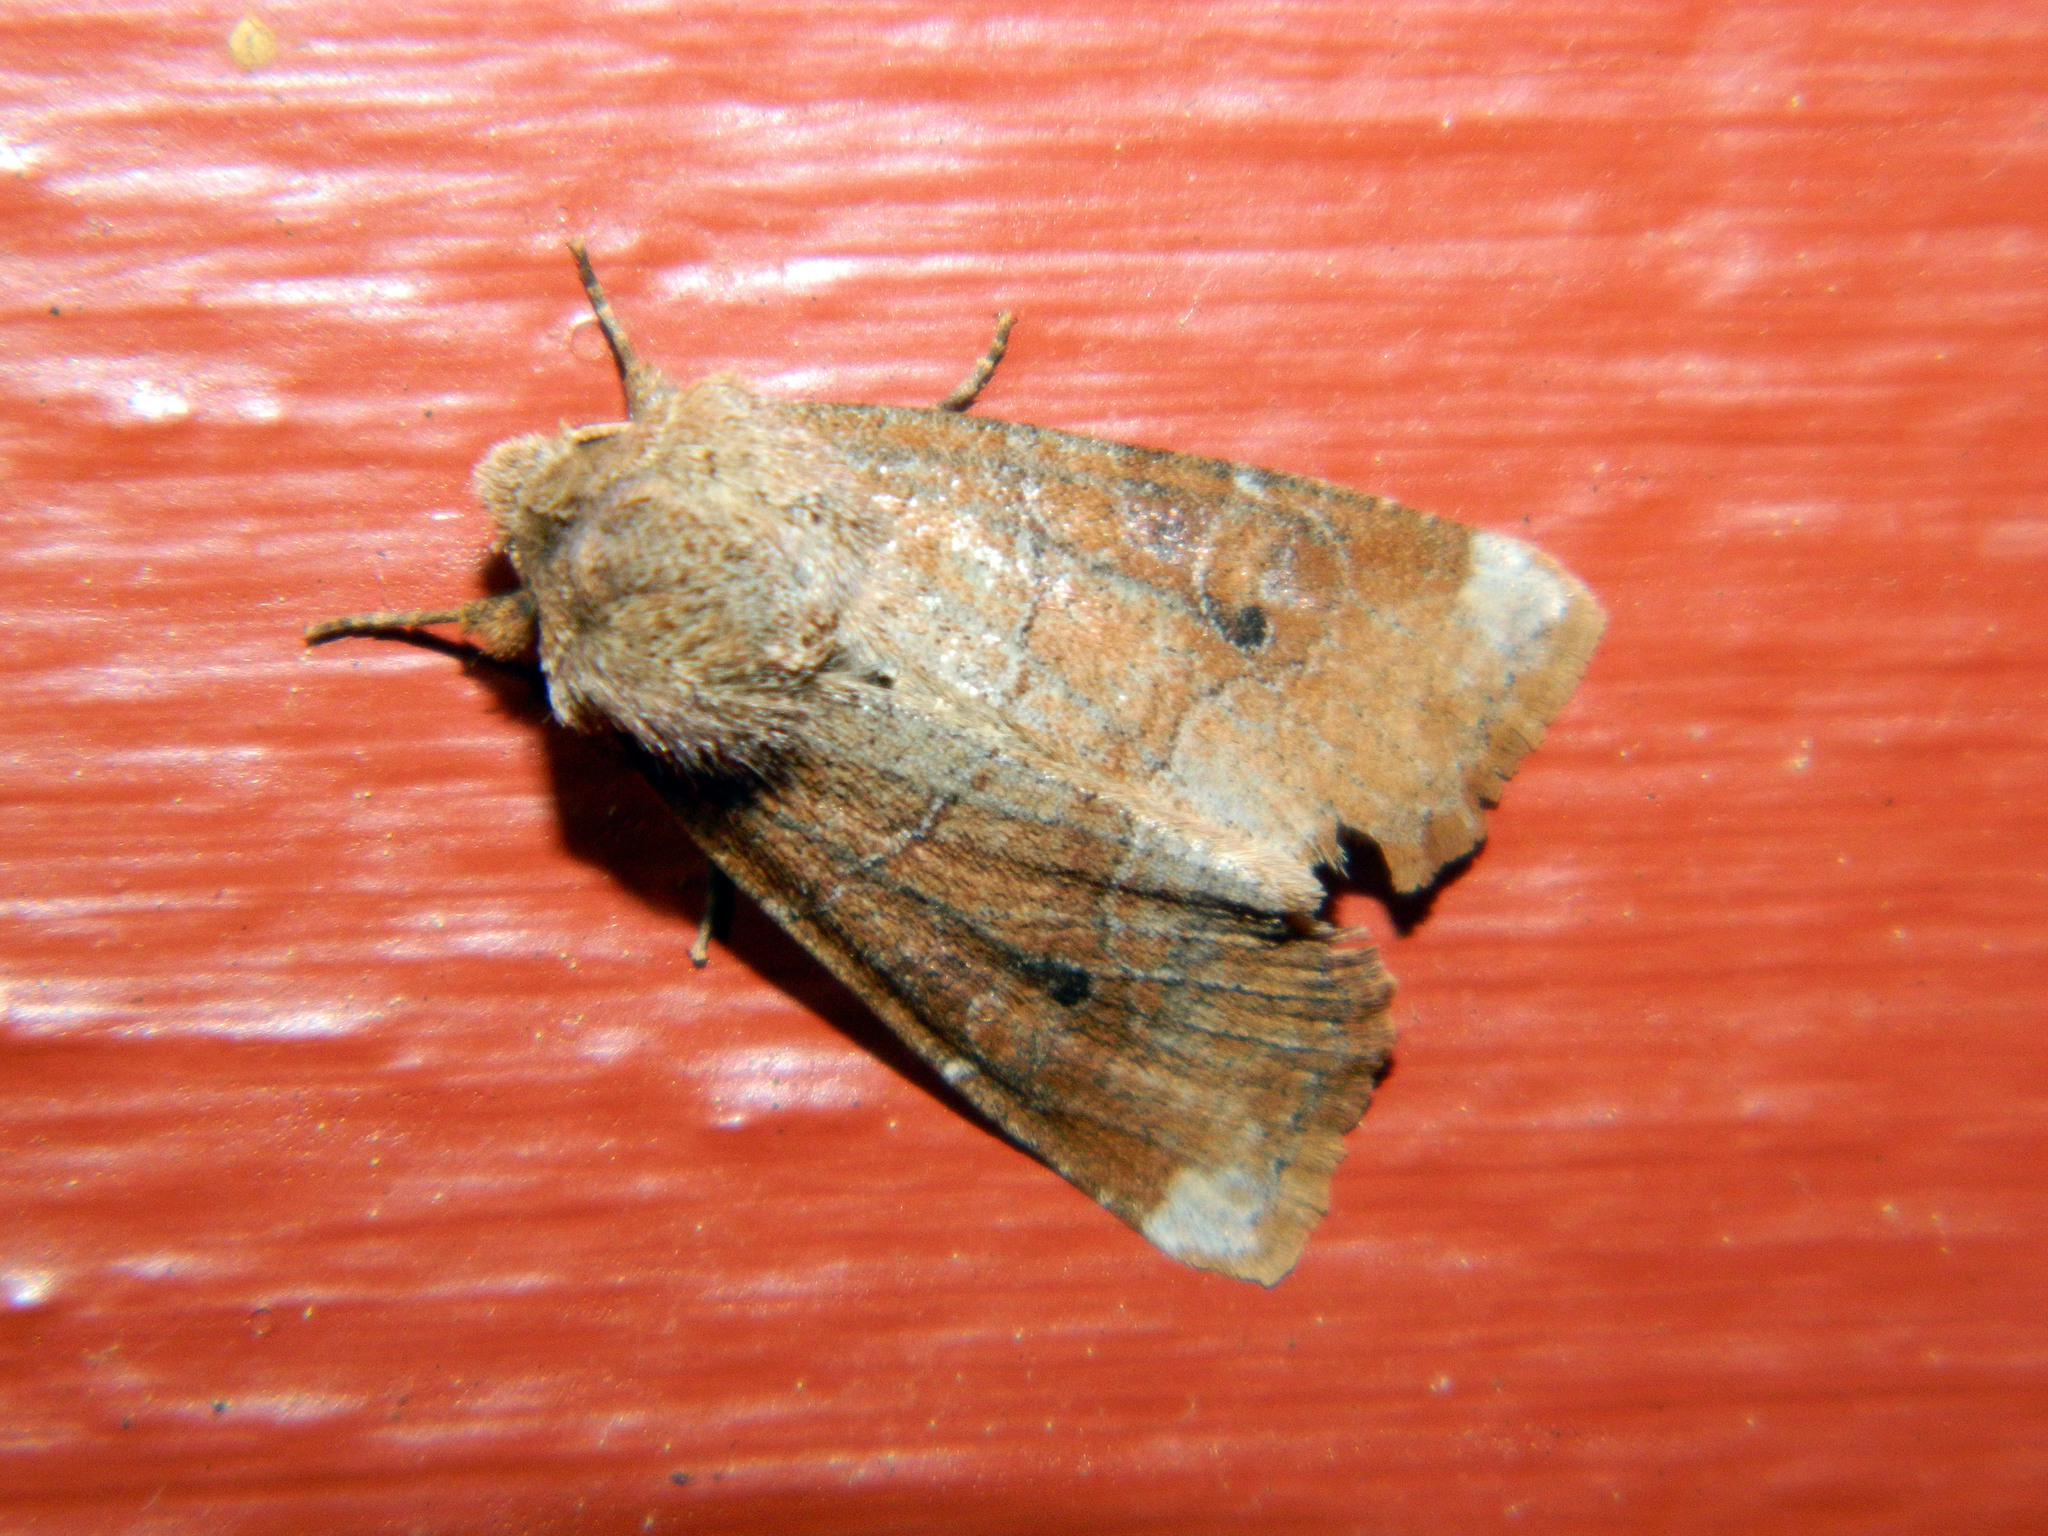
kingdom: Animalia
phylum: Arthropoda
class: Insecta
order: Lepidoptera
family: Noctuidae
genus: Crocigrapha
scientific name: Crocigrapha normani
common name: Norman's quaker
